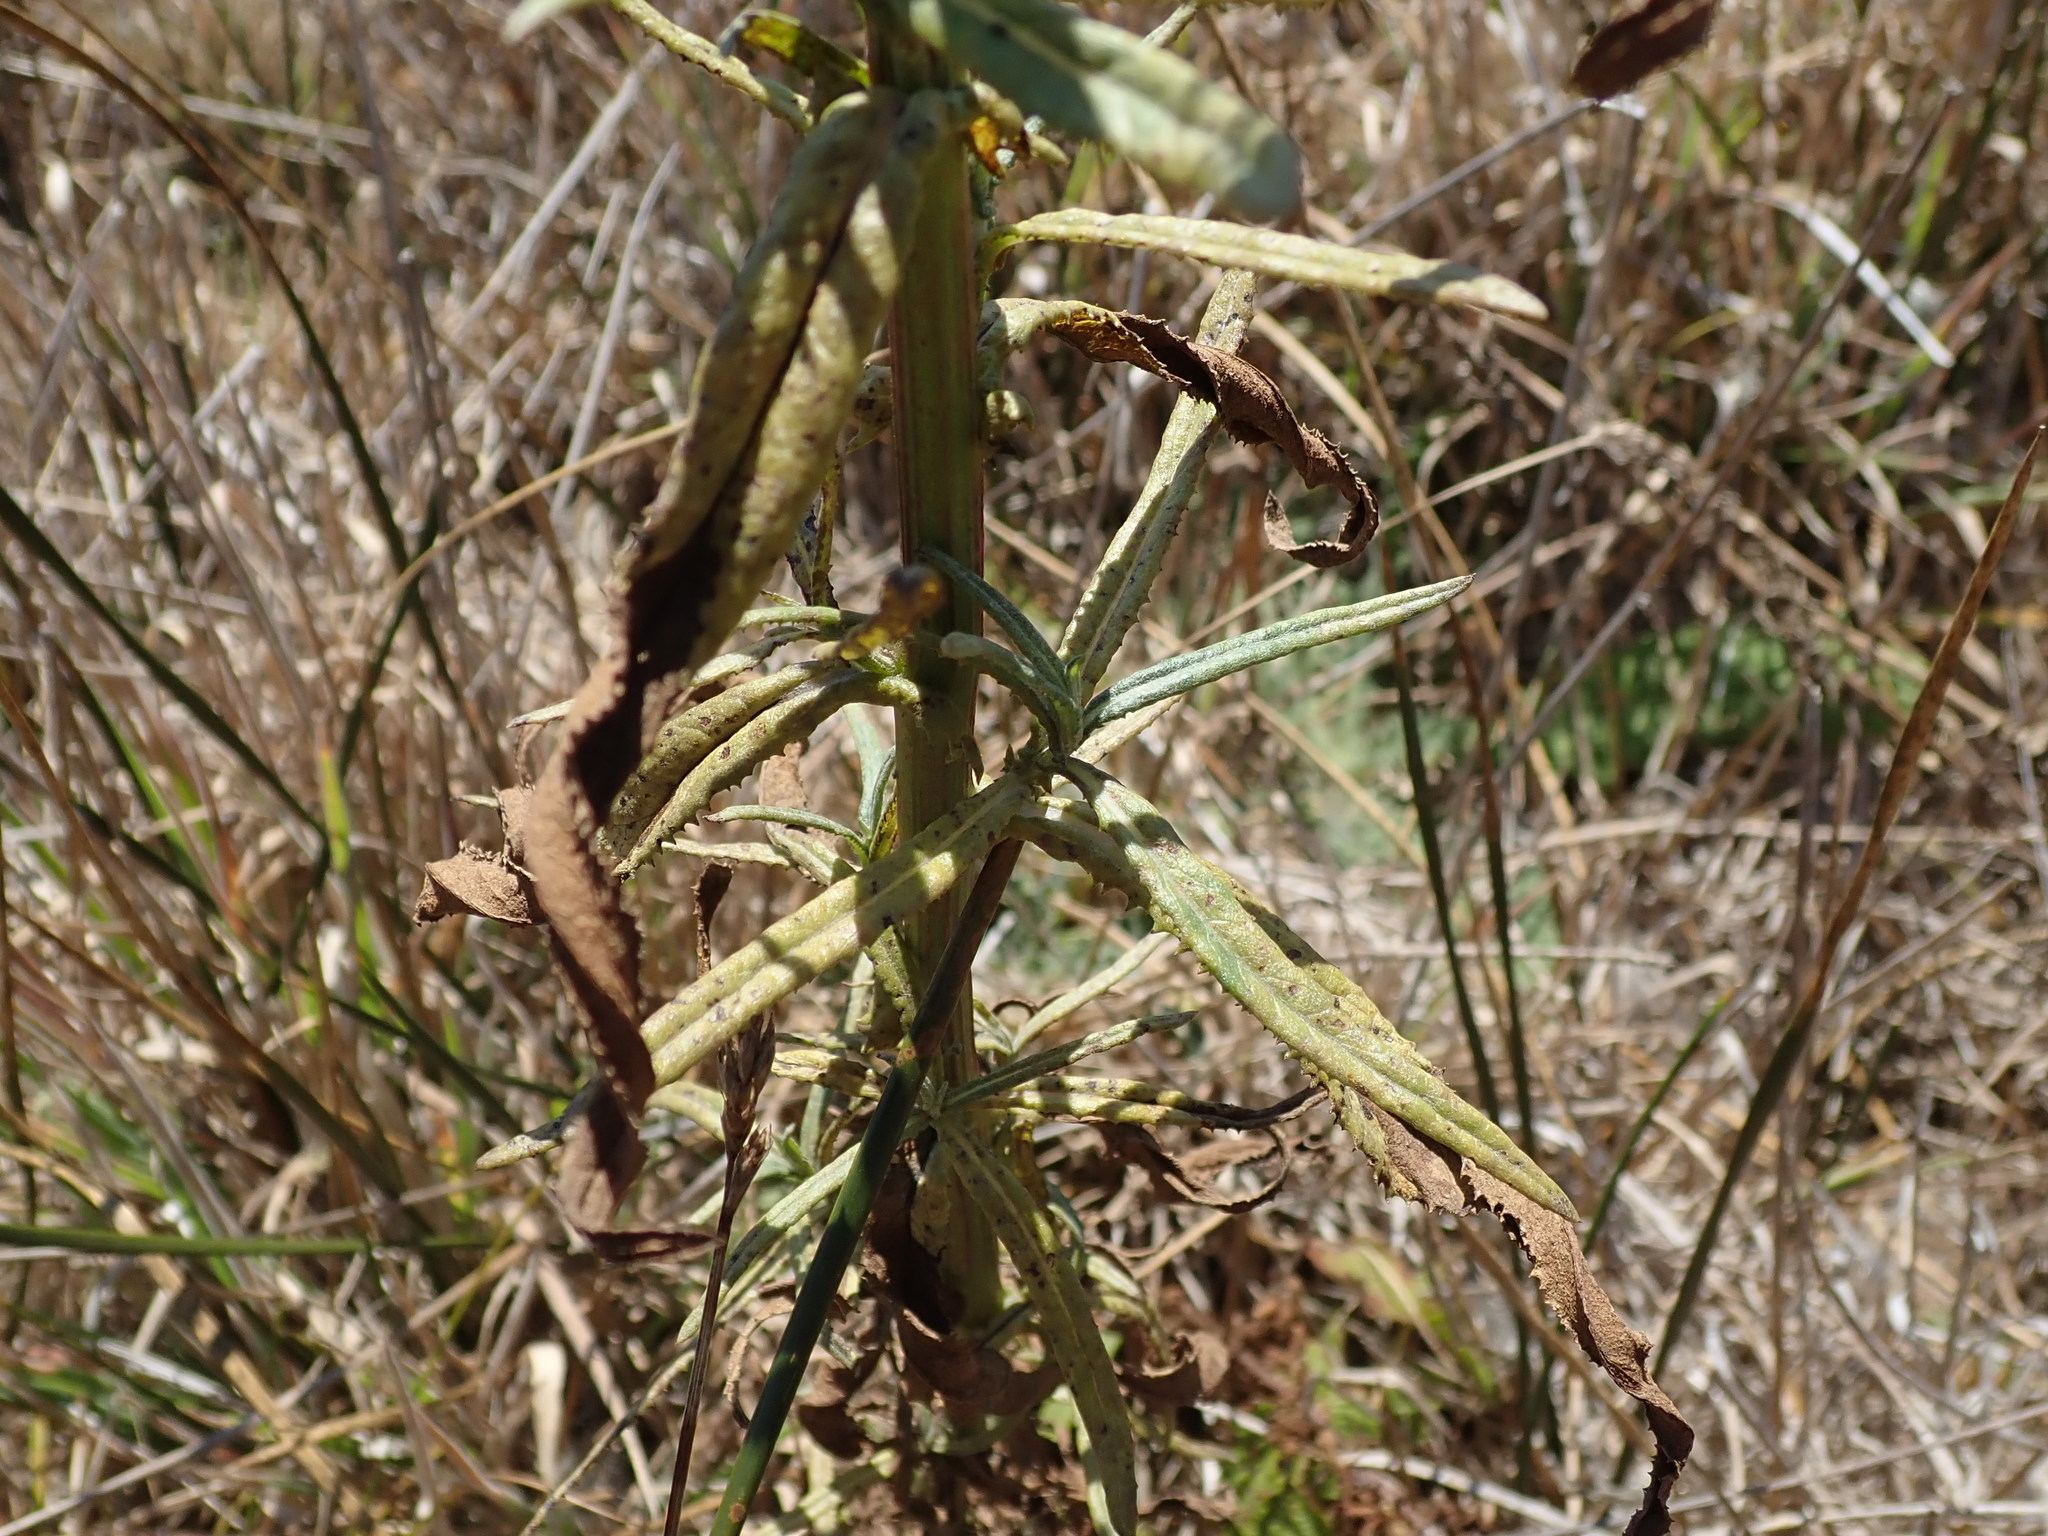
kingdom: Plantae
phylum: Tracheophyta
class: Magnoliopsida
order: Asterales
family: Asteraceae
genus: Senecio
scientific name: Senecio minimus
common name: Toothed fireweed
